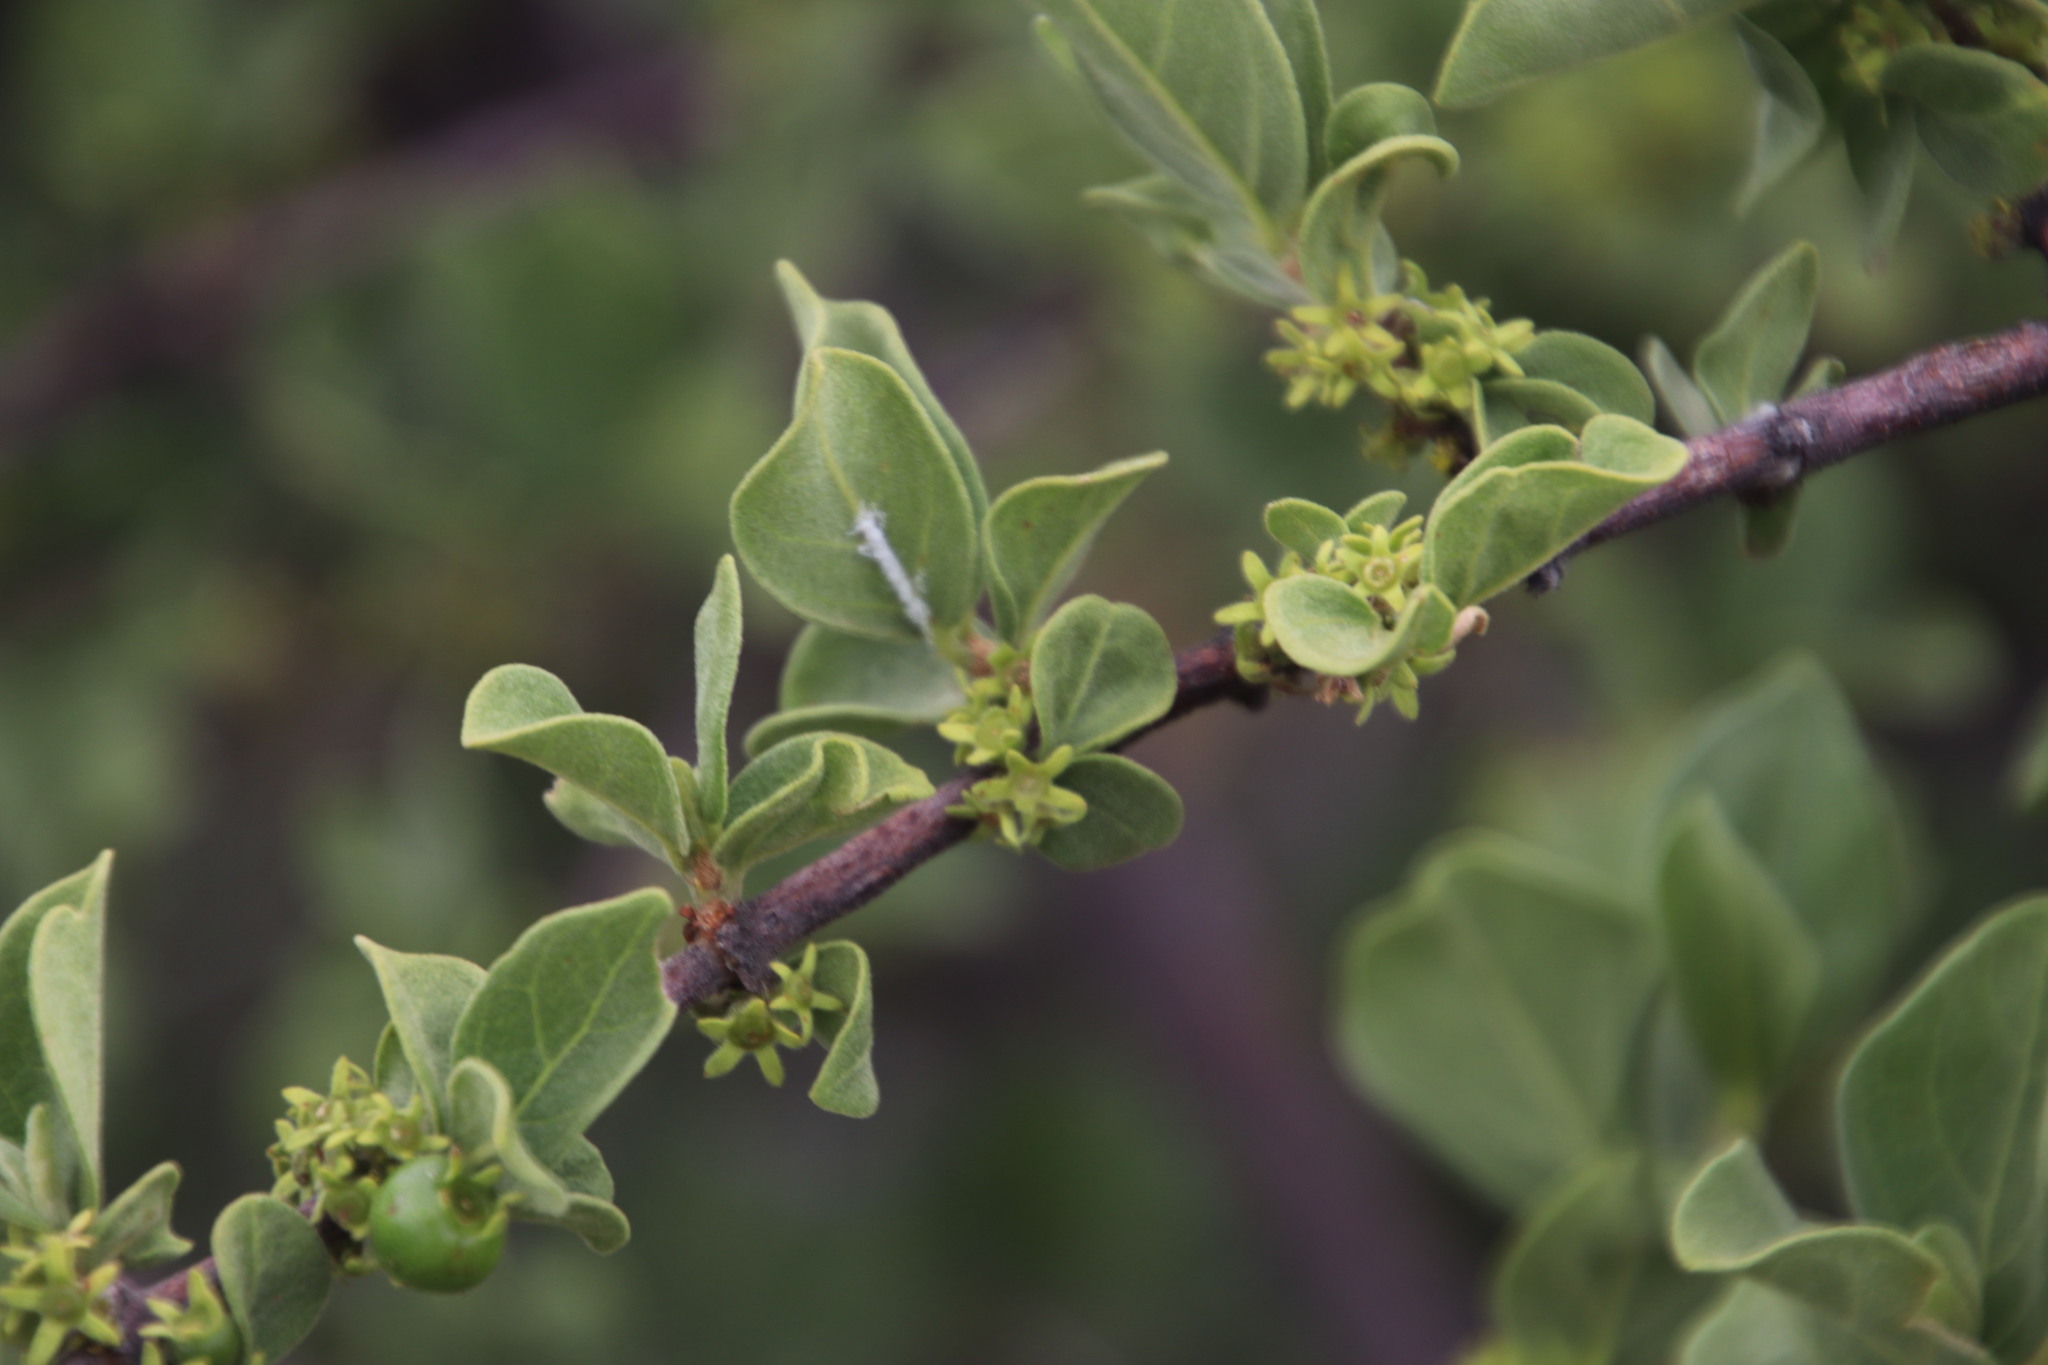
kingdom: Plantae
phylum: Tracheophyta
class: Magnoliopsida
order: Gentianales
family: Rubiaceae
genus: Vangueria
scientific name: Vangueria parvifolia
